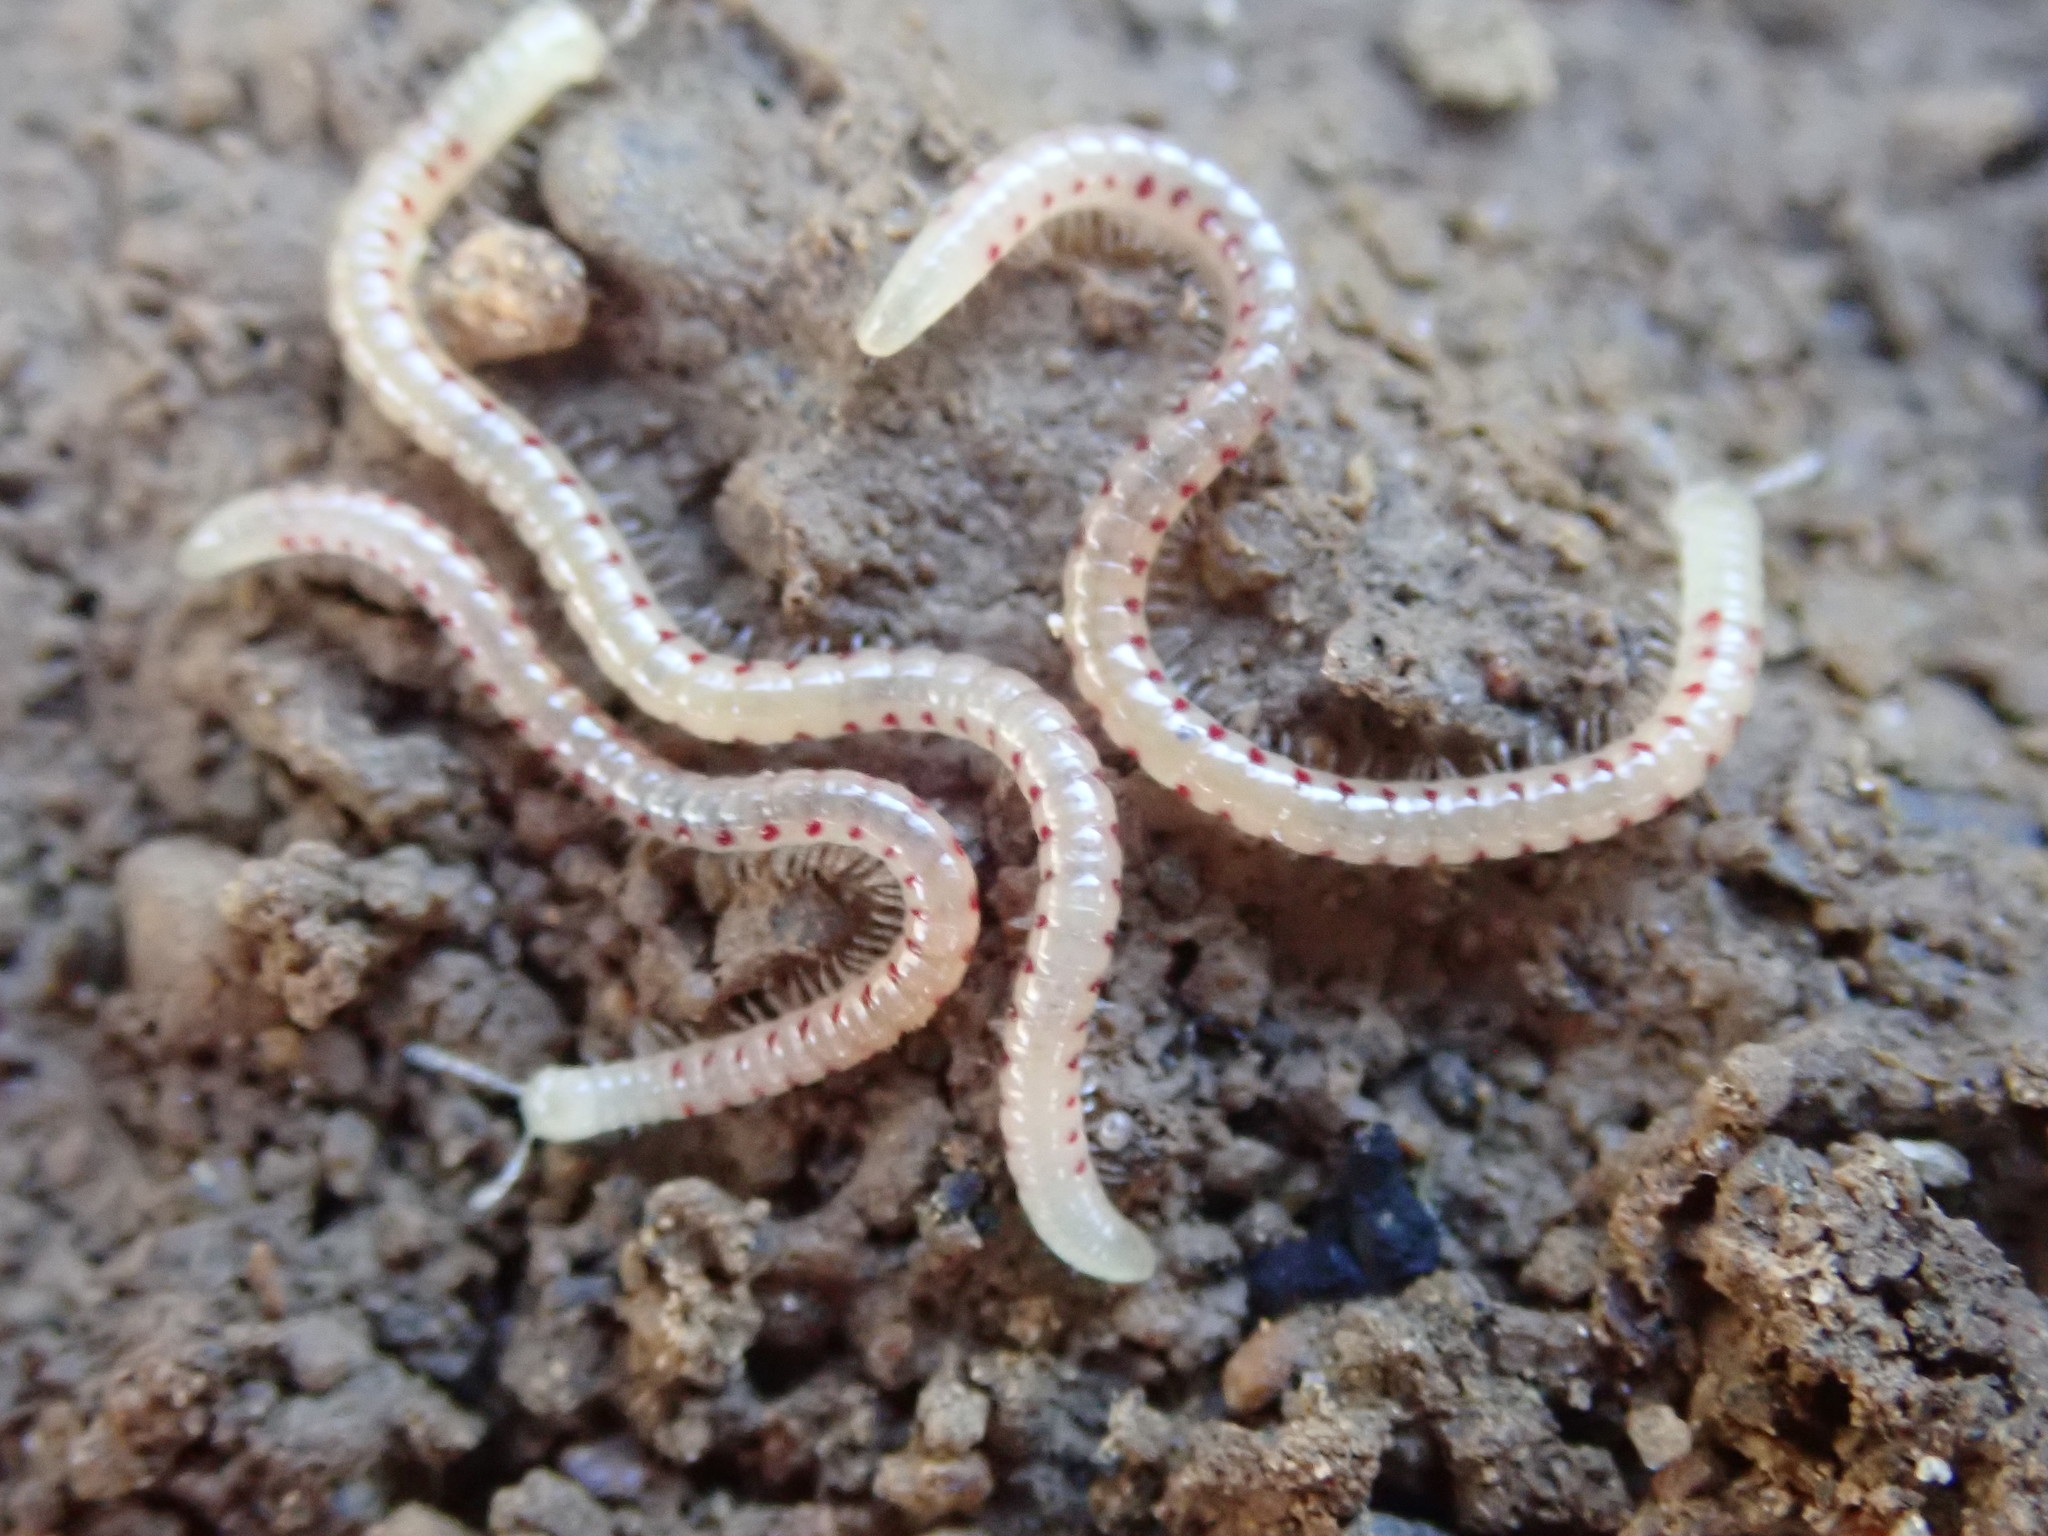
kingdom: Animalia
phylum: Arthropoda
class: Diplopoda
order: Julida
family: Blaniulidae
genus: Blaniulus
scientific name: Blaniulus guttulatus
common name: Spotted snake millipede
